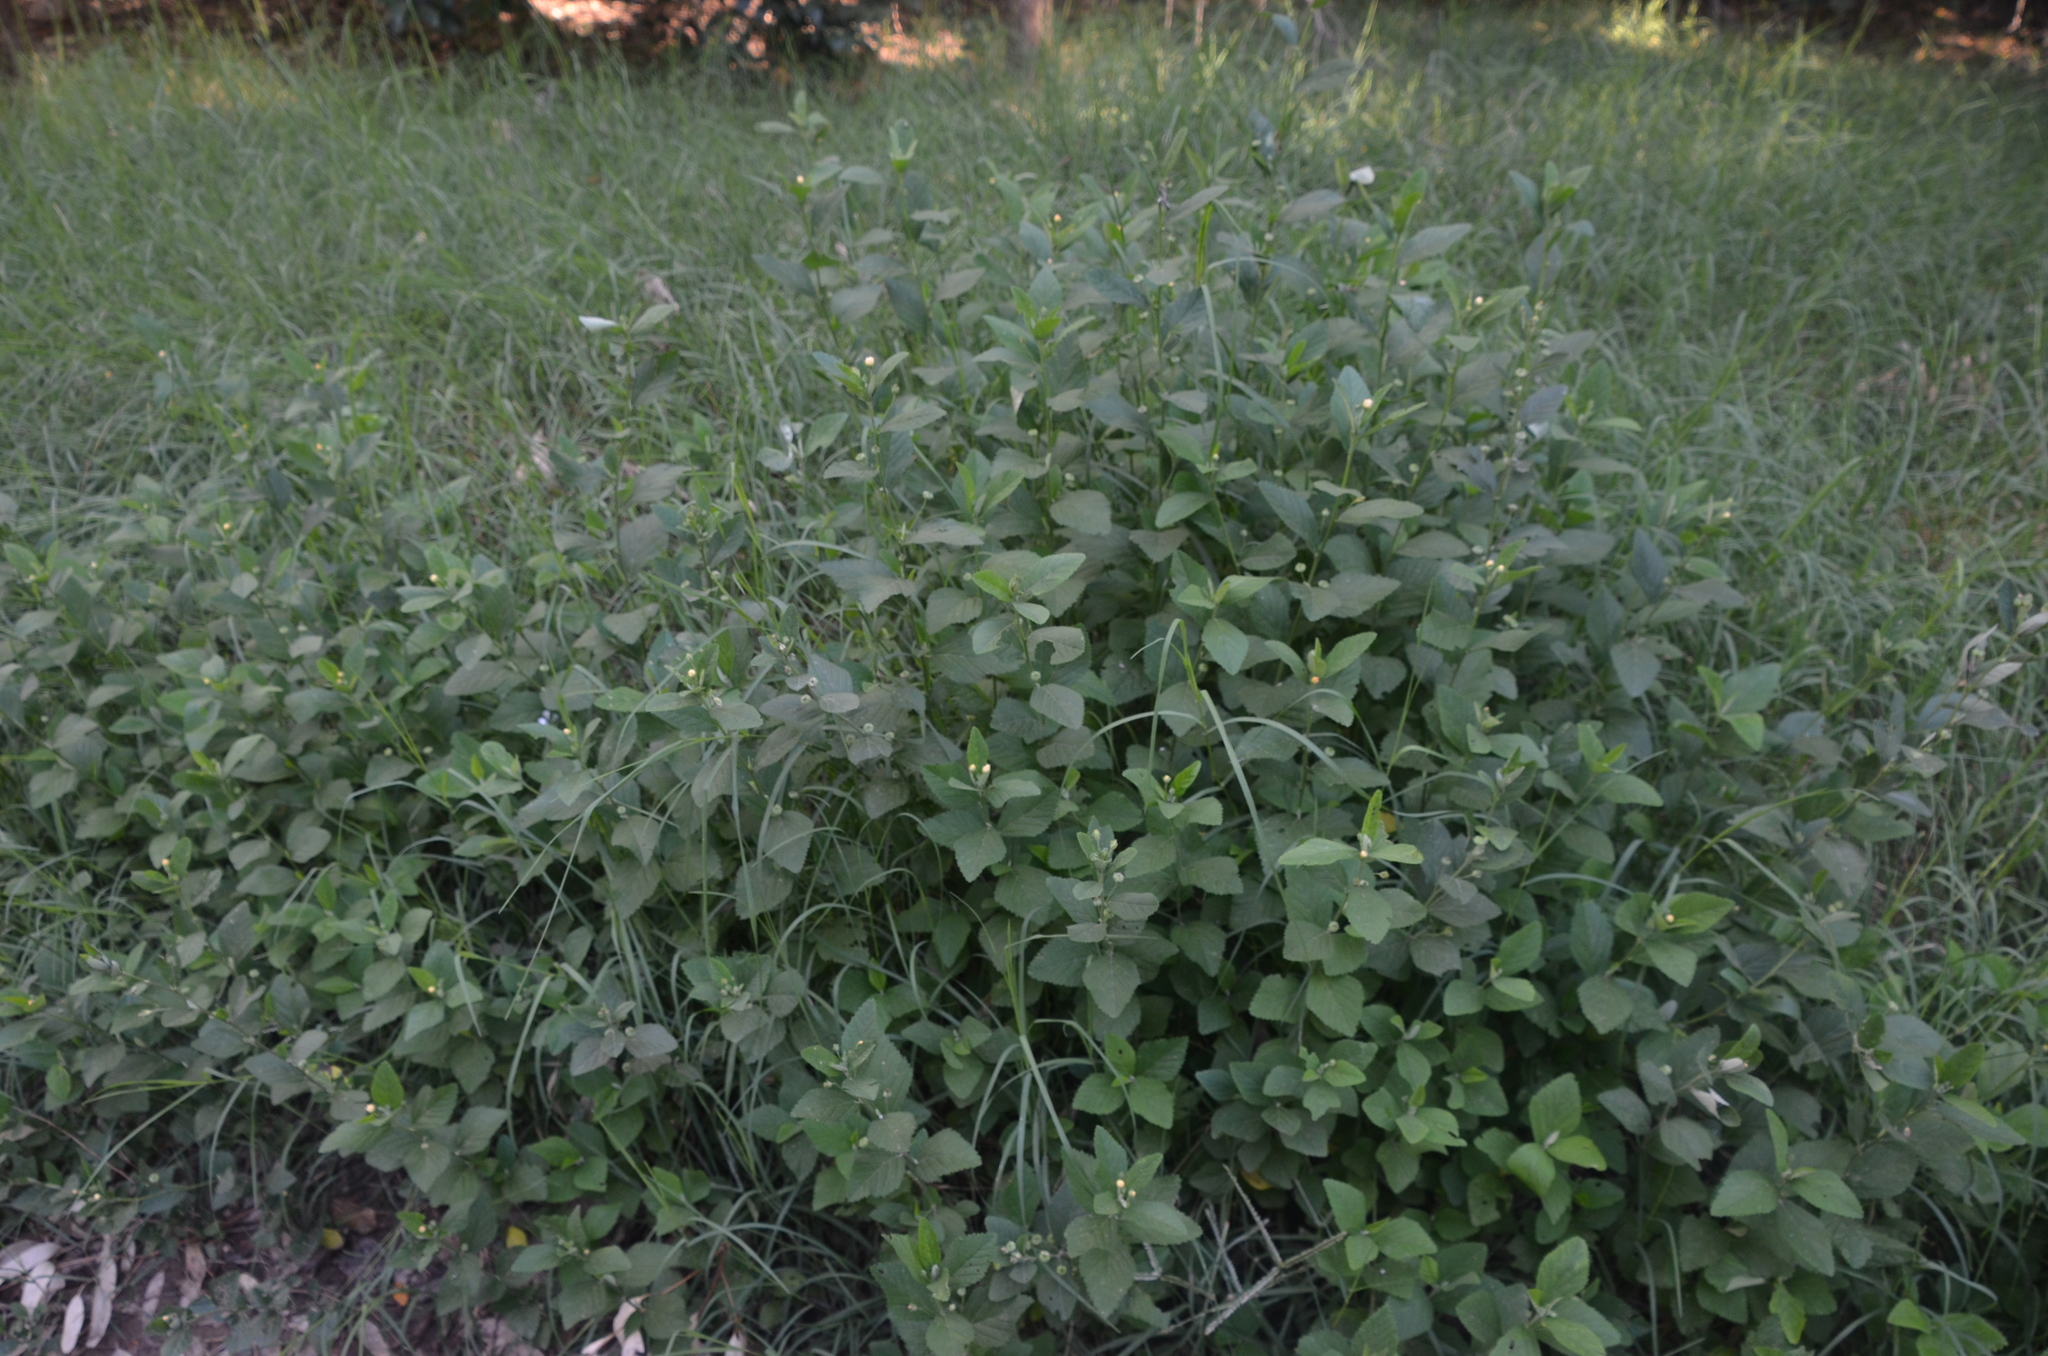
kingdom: Plantae
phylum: Tracheophyta
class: Magnoliopsida
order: Malvales
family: Malvaceae
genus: Sida
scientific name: Sida rhombifolia
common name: Queensland-hemp
